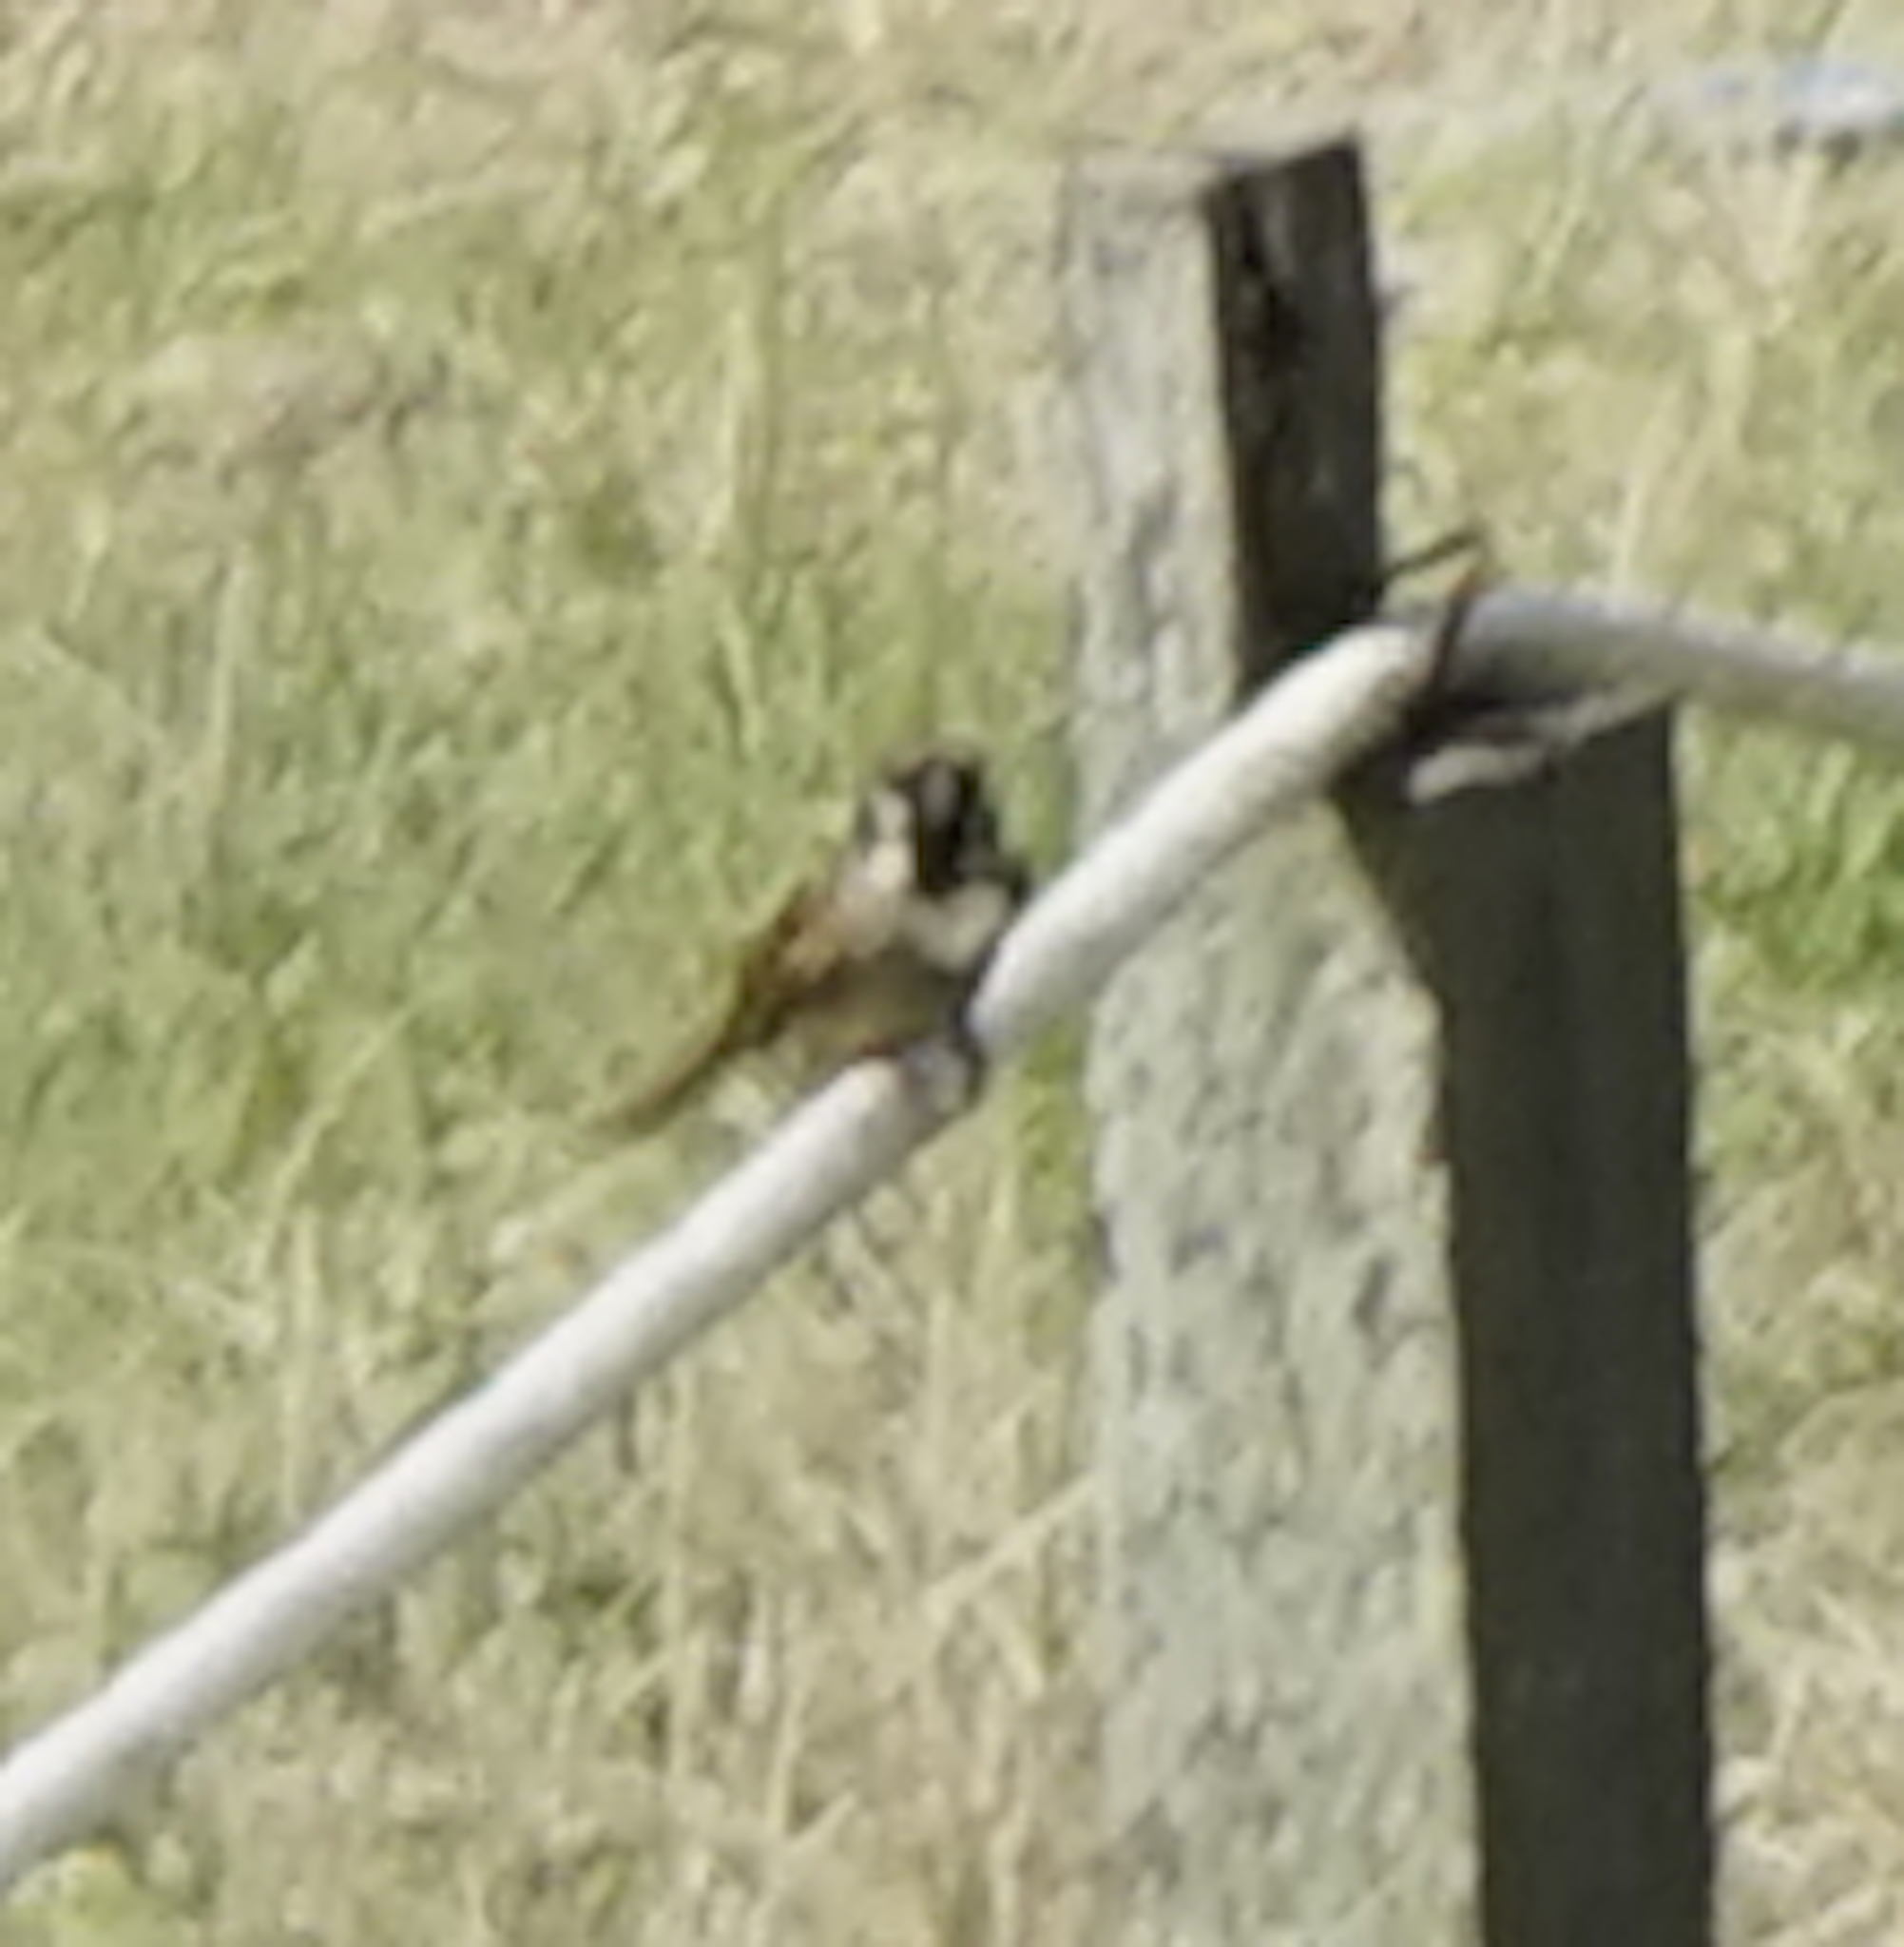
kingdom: Animalia
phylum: Chordata
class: Aves
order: Passeriformes
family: Passeridae
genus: Passer
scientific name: Passer montanus
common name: Eurasian tree sparrow
